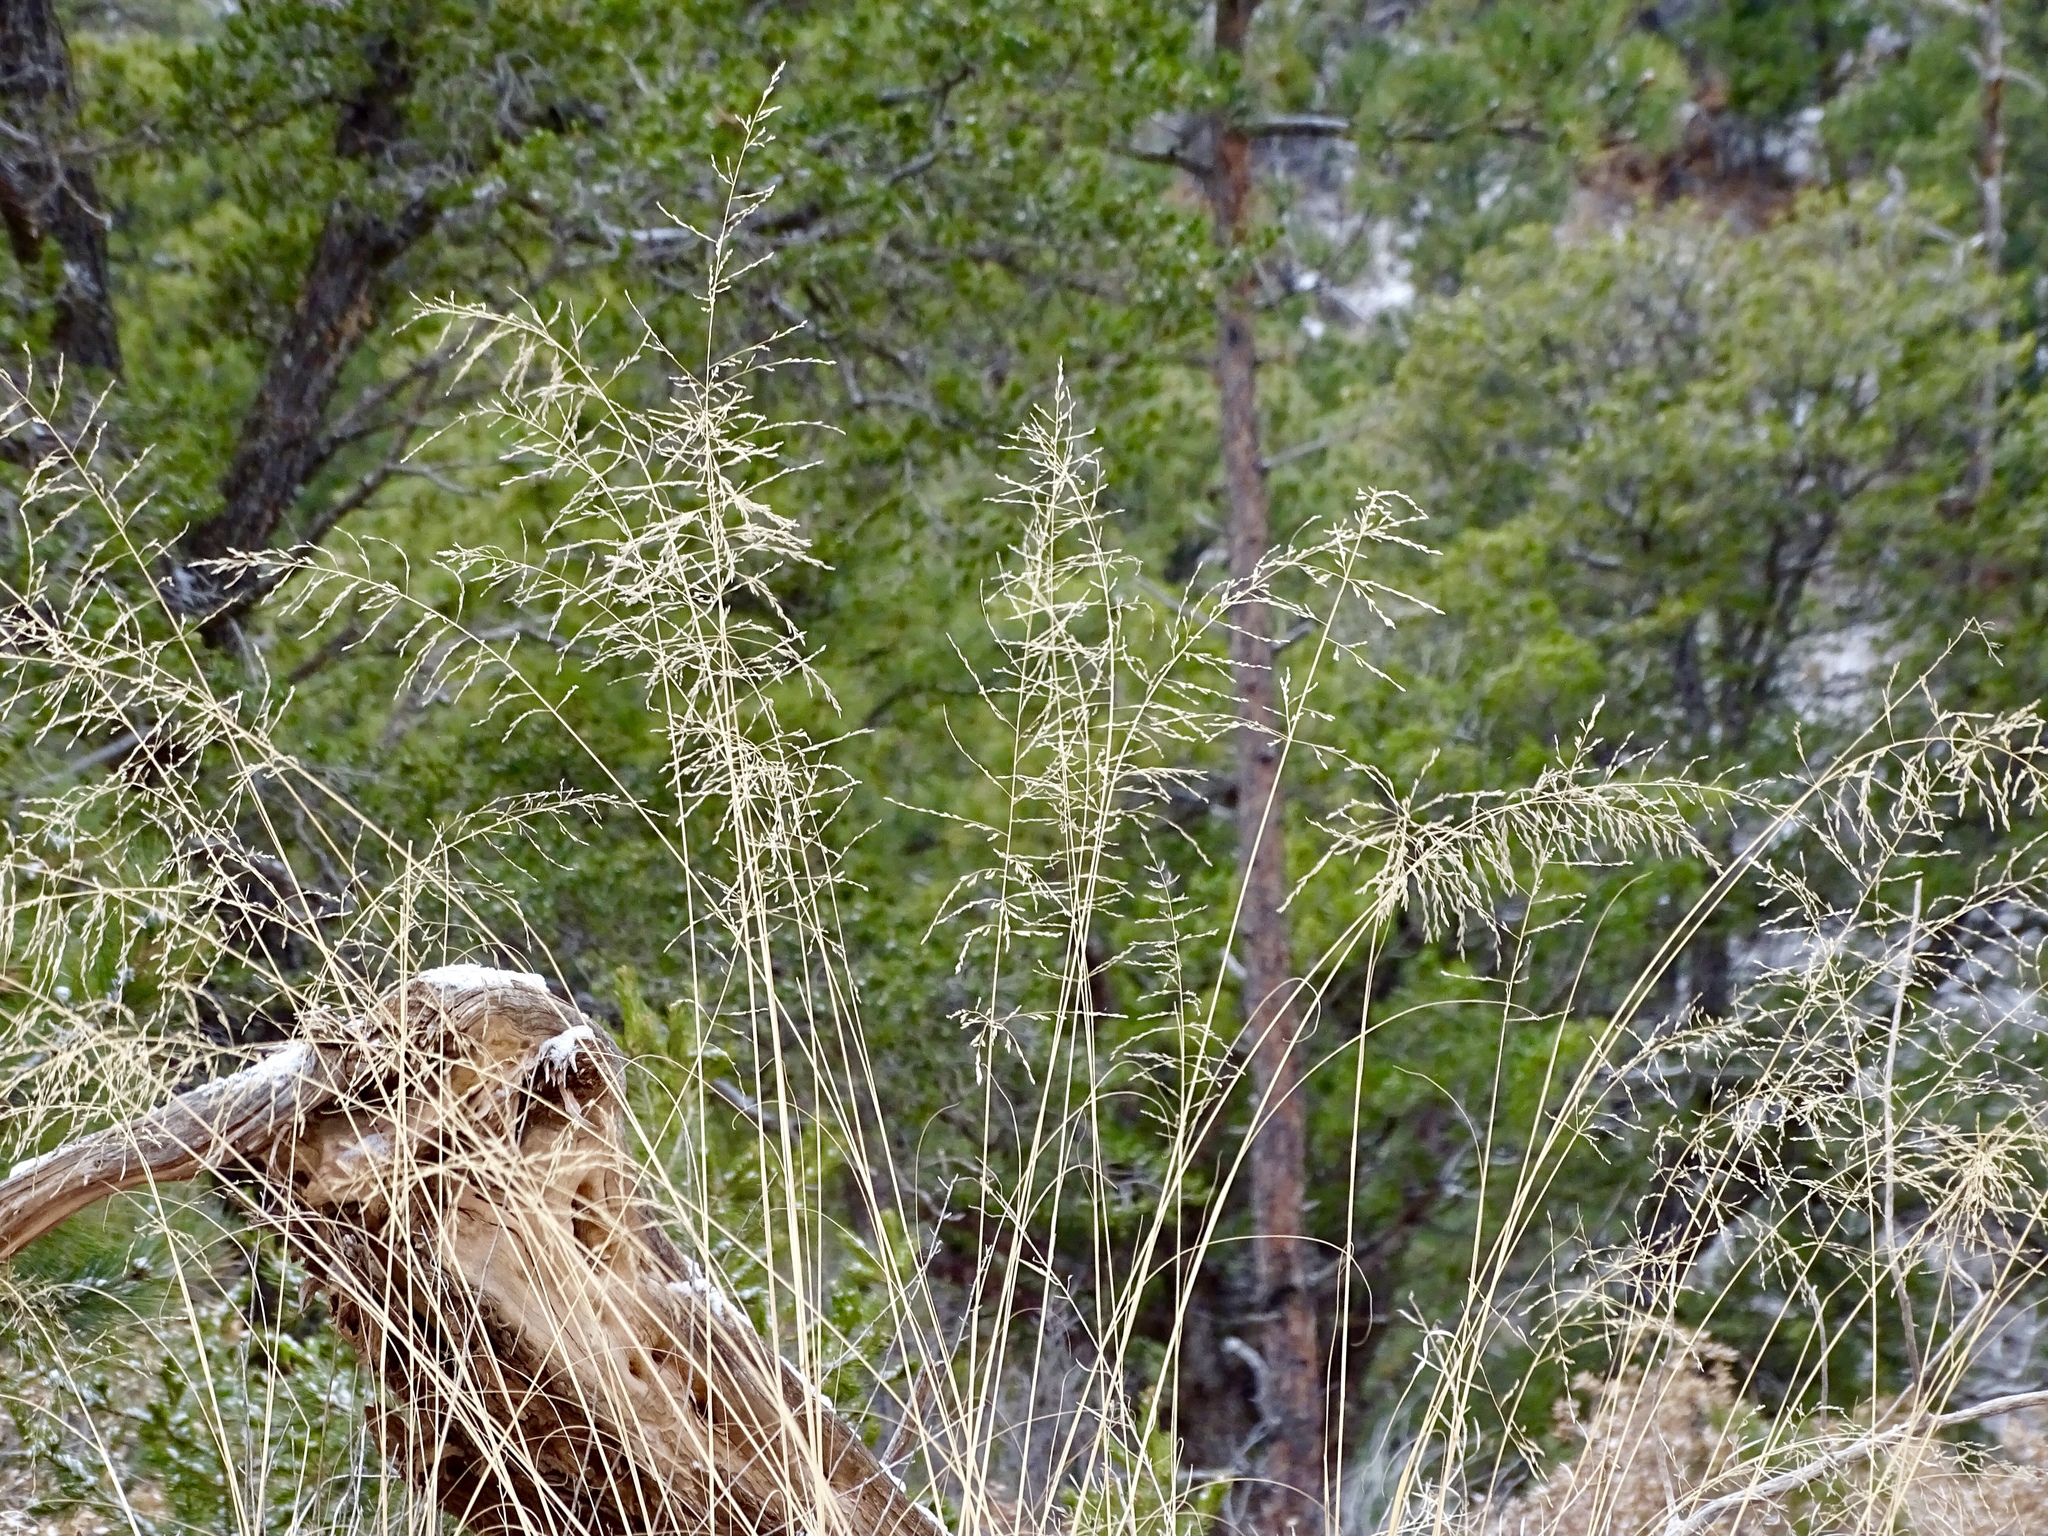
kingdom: Plantae
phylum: Tracheophyta
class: Liliopsida
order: Poales
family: Poaceae
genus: Eragrostis
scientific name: Eragrostis curvula
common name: African love-grass
